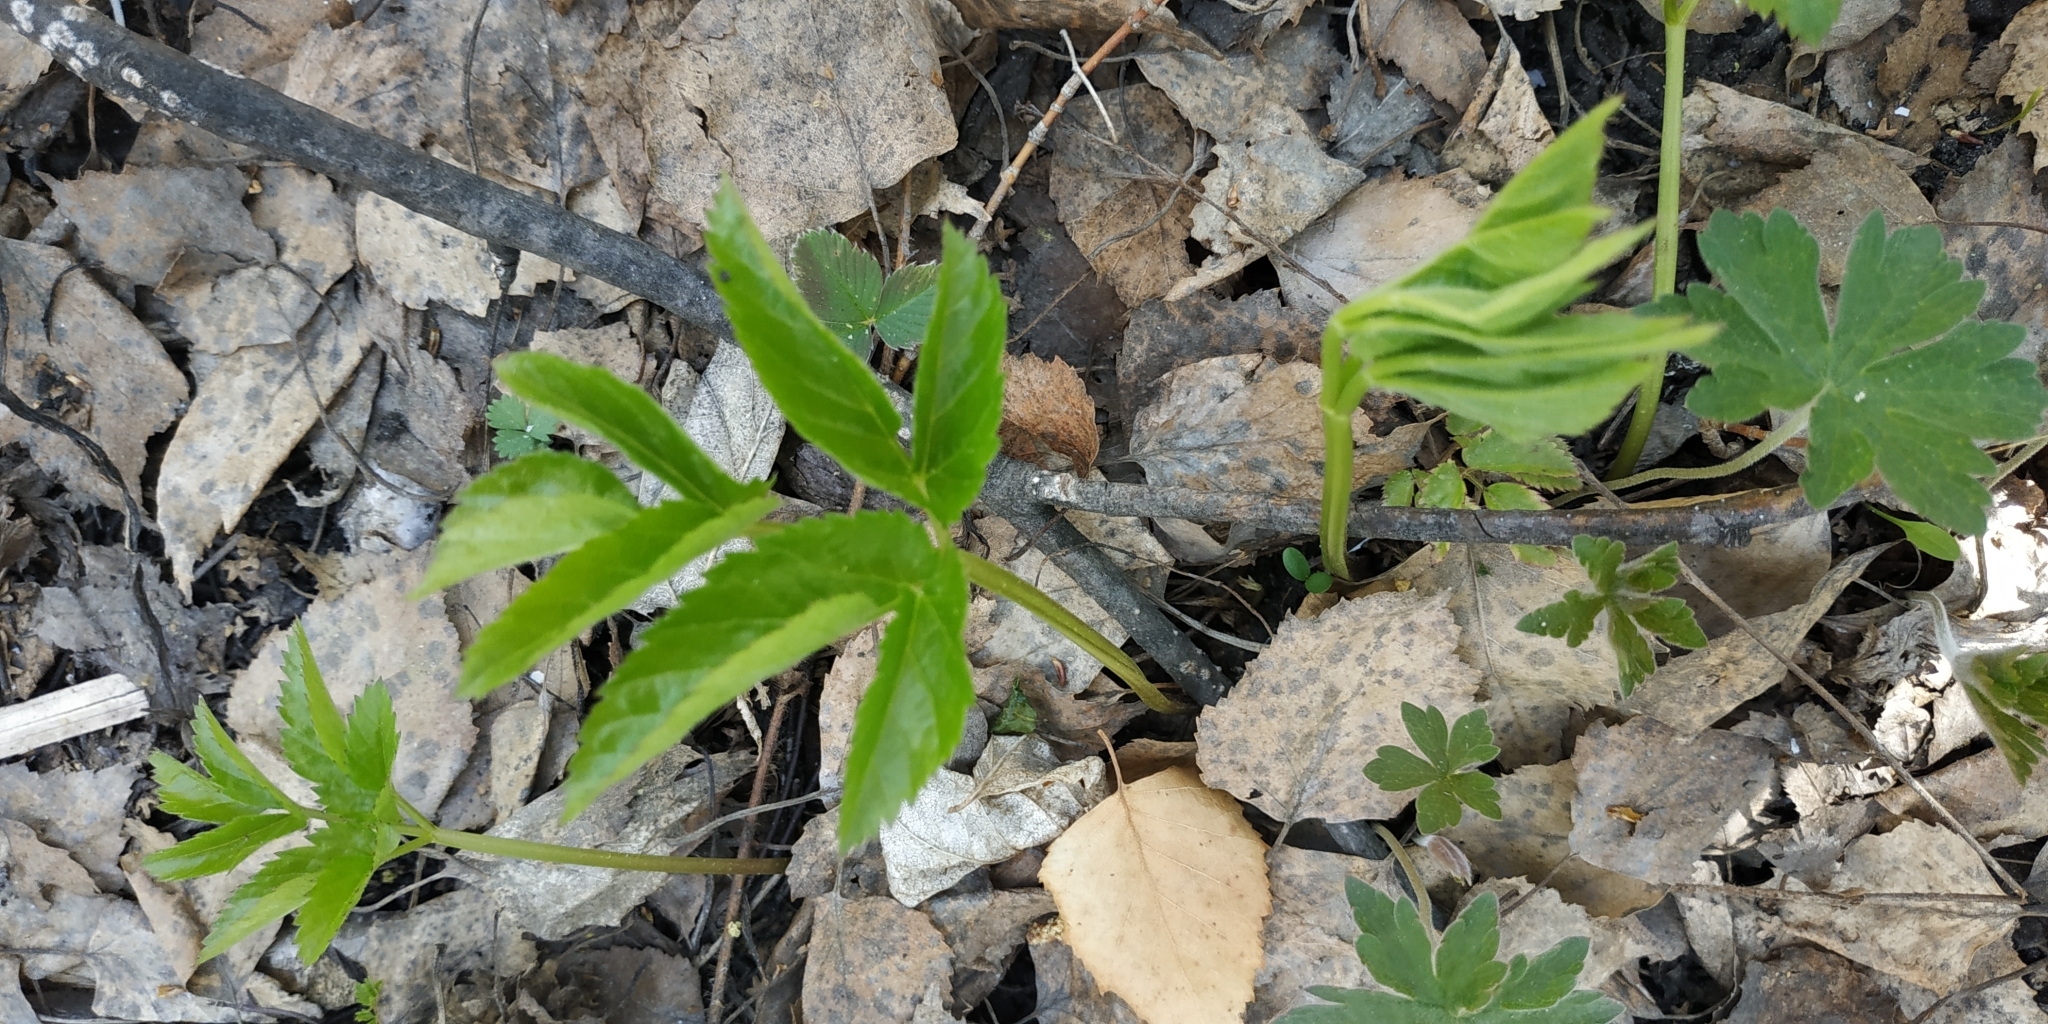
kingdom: Plantae
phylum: Tracheophyta
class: Magnoliopsida
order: Apiales
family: Apiaceae
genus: Aegopodium
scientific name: Aegopodium podagraria
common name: Ground-elder
